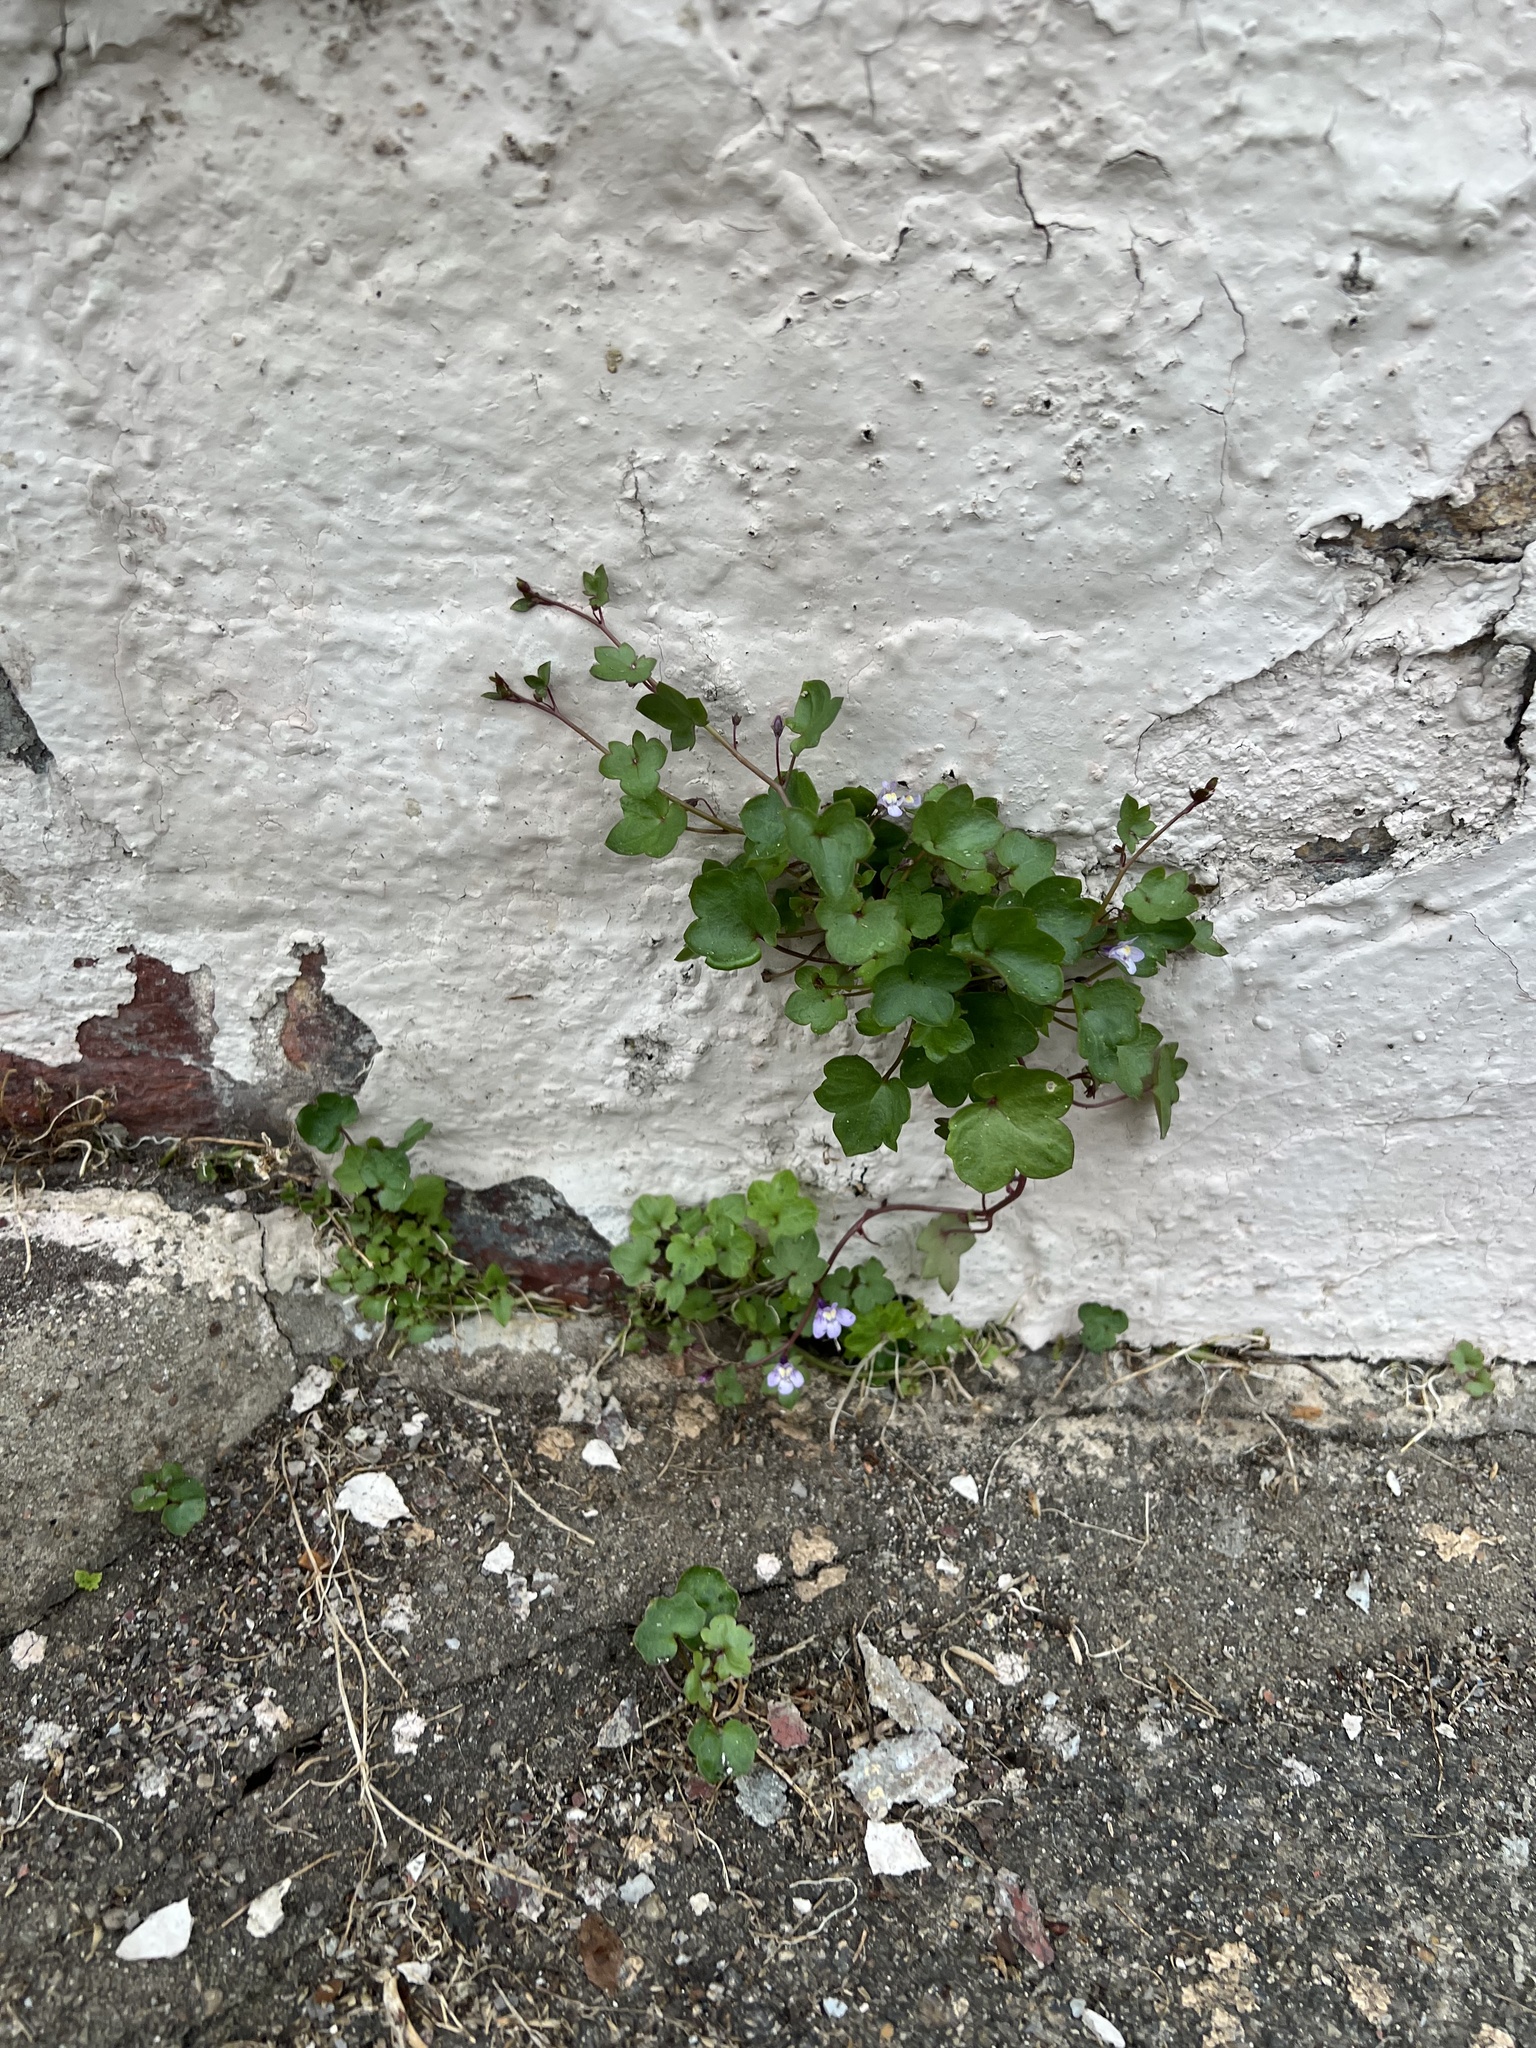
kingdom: Plantae
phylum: Tracheophyta
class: Magnoliopsida
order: Lamiales
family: Plantaginaceae
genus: Cymbalaria
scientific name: Cymbalaria muralis
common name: Ivy-leaved toadflax
